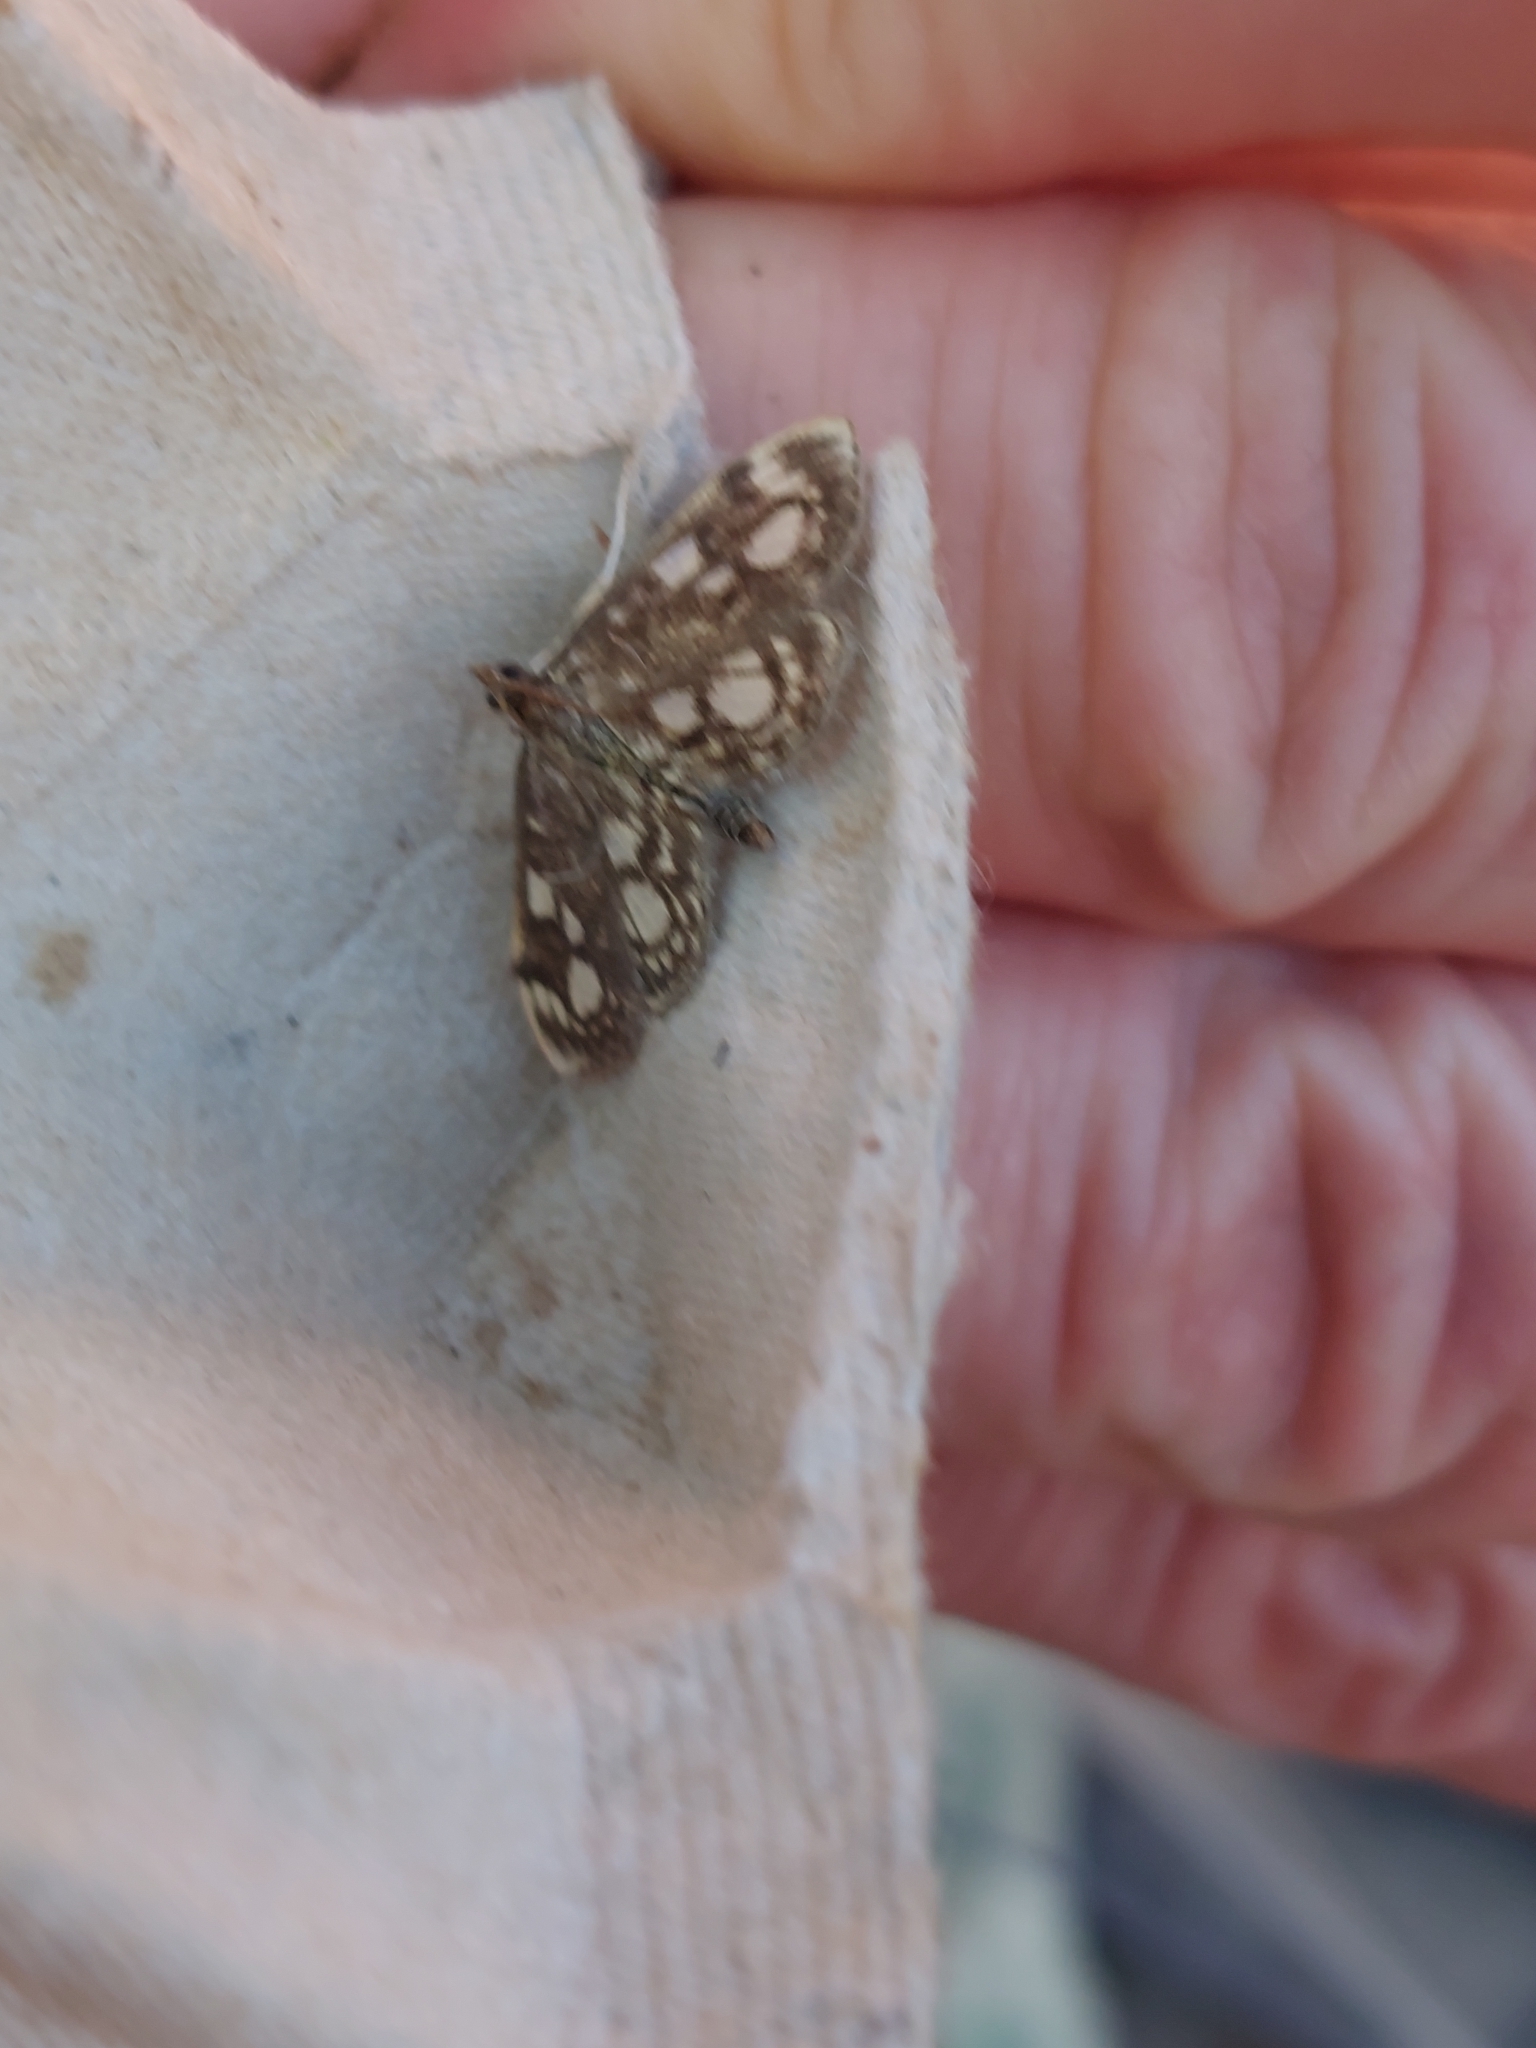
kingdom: Animalia
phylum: Arthropoda
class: Insecta
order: Lepidoptera
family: Crambidae
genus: Anania
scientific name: Anania coronata
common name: Elder pearl
